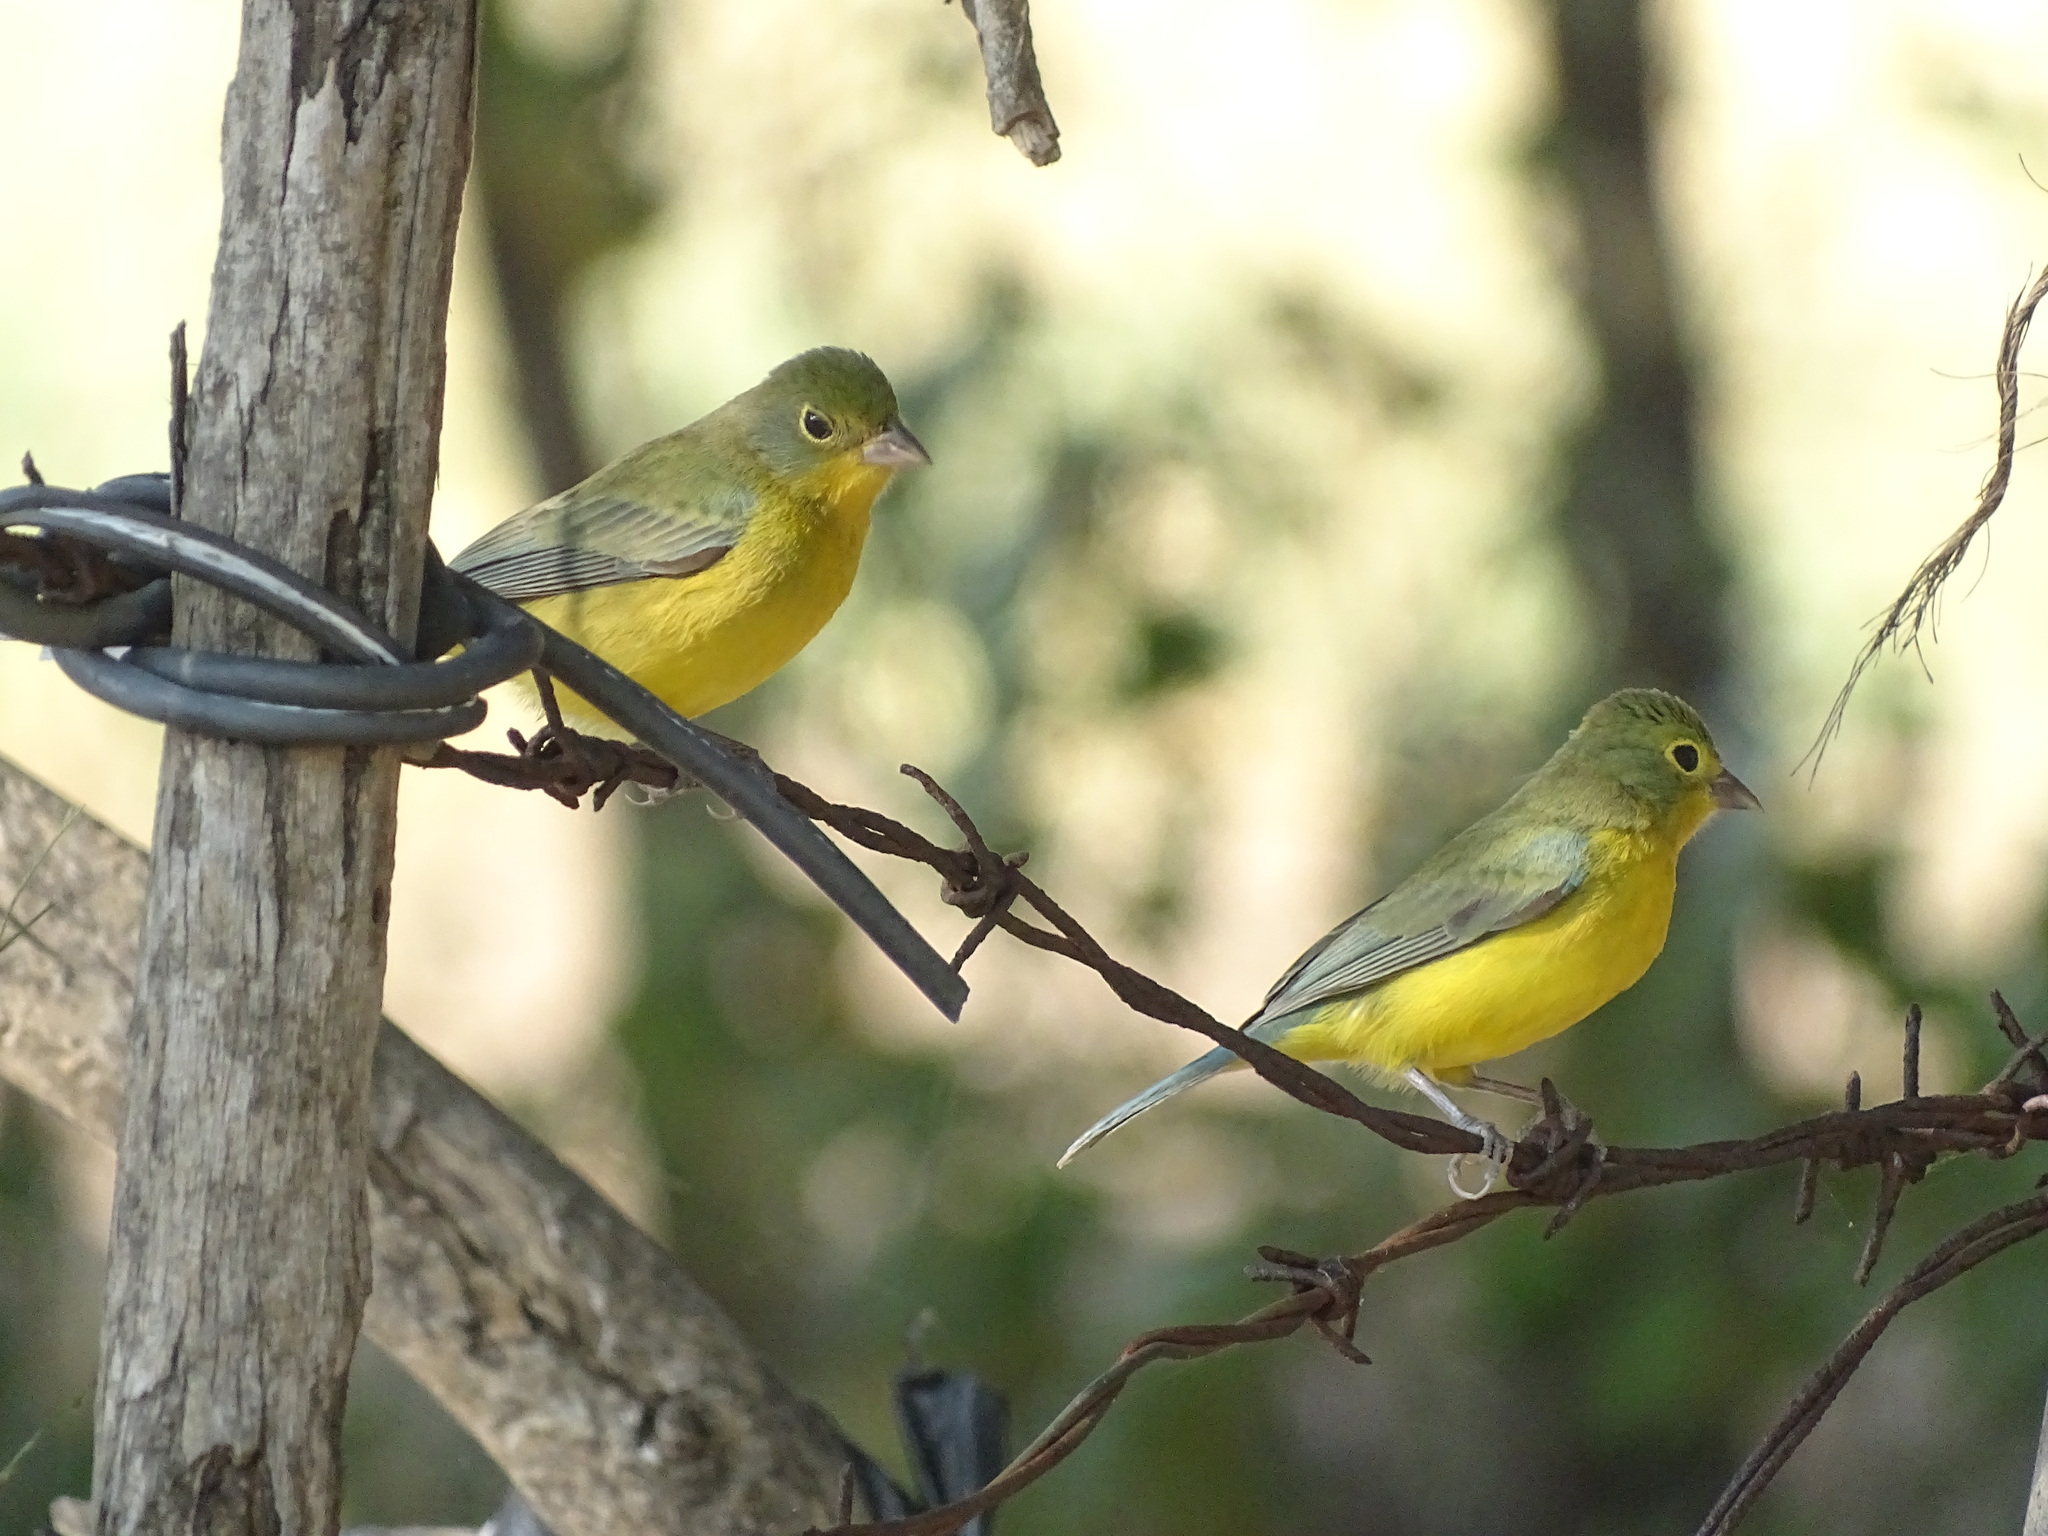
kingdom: Animalia
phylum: Chordata
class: Aves
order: Passeriformes
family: Cardinalidae
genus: Passerina
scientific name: Passerina leclancherii
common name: Orange-breasted bunting
